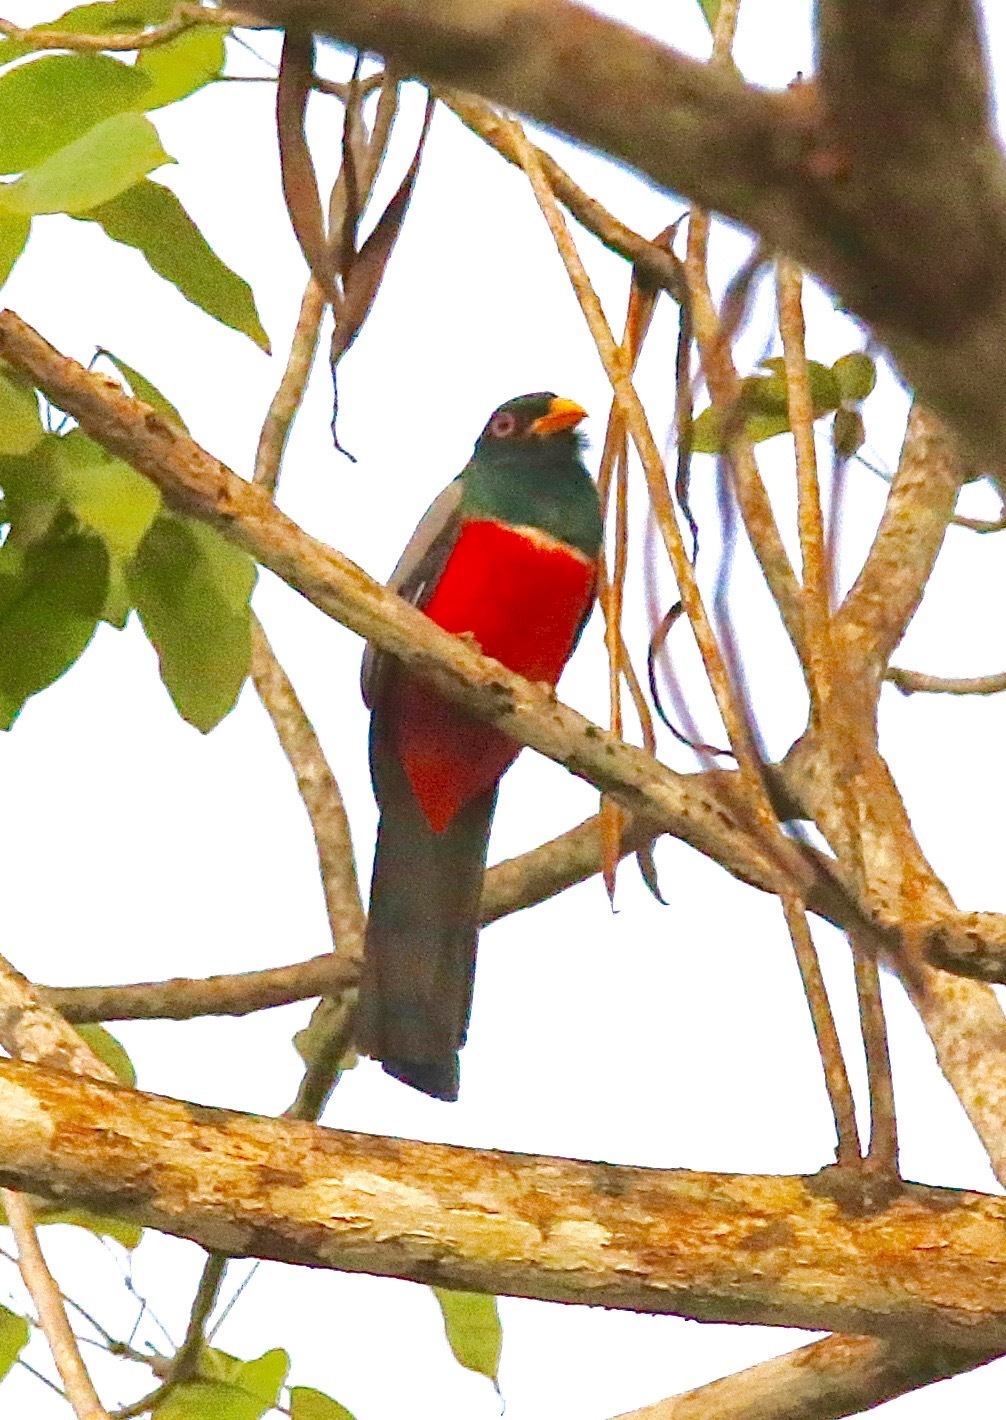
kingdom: Animalia
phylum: Chordata
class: Aves
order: Trogoniformes
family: Trogonidae
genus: Trogon
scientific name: Trogon melanurus
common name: Black-tailed trogon
